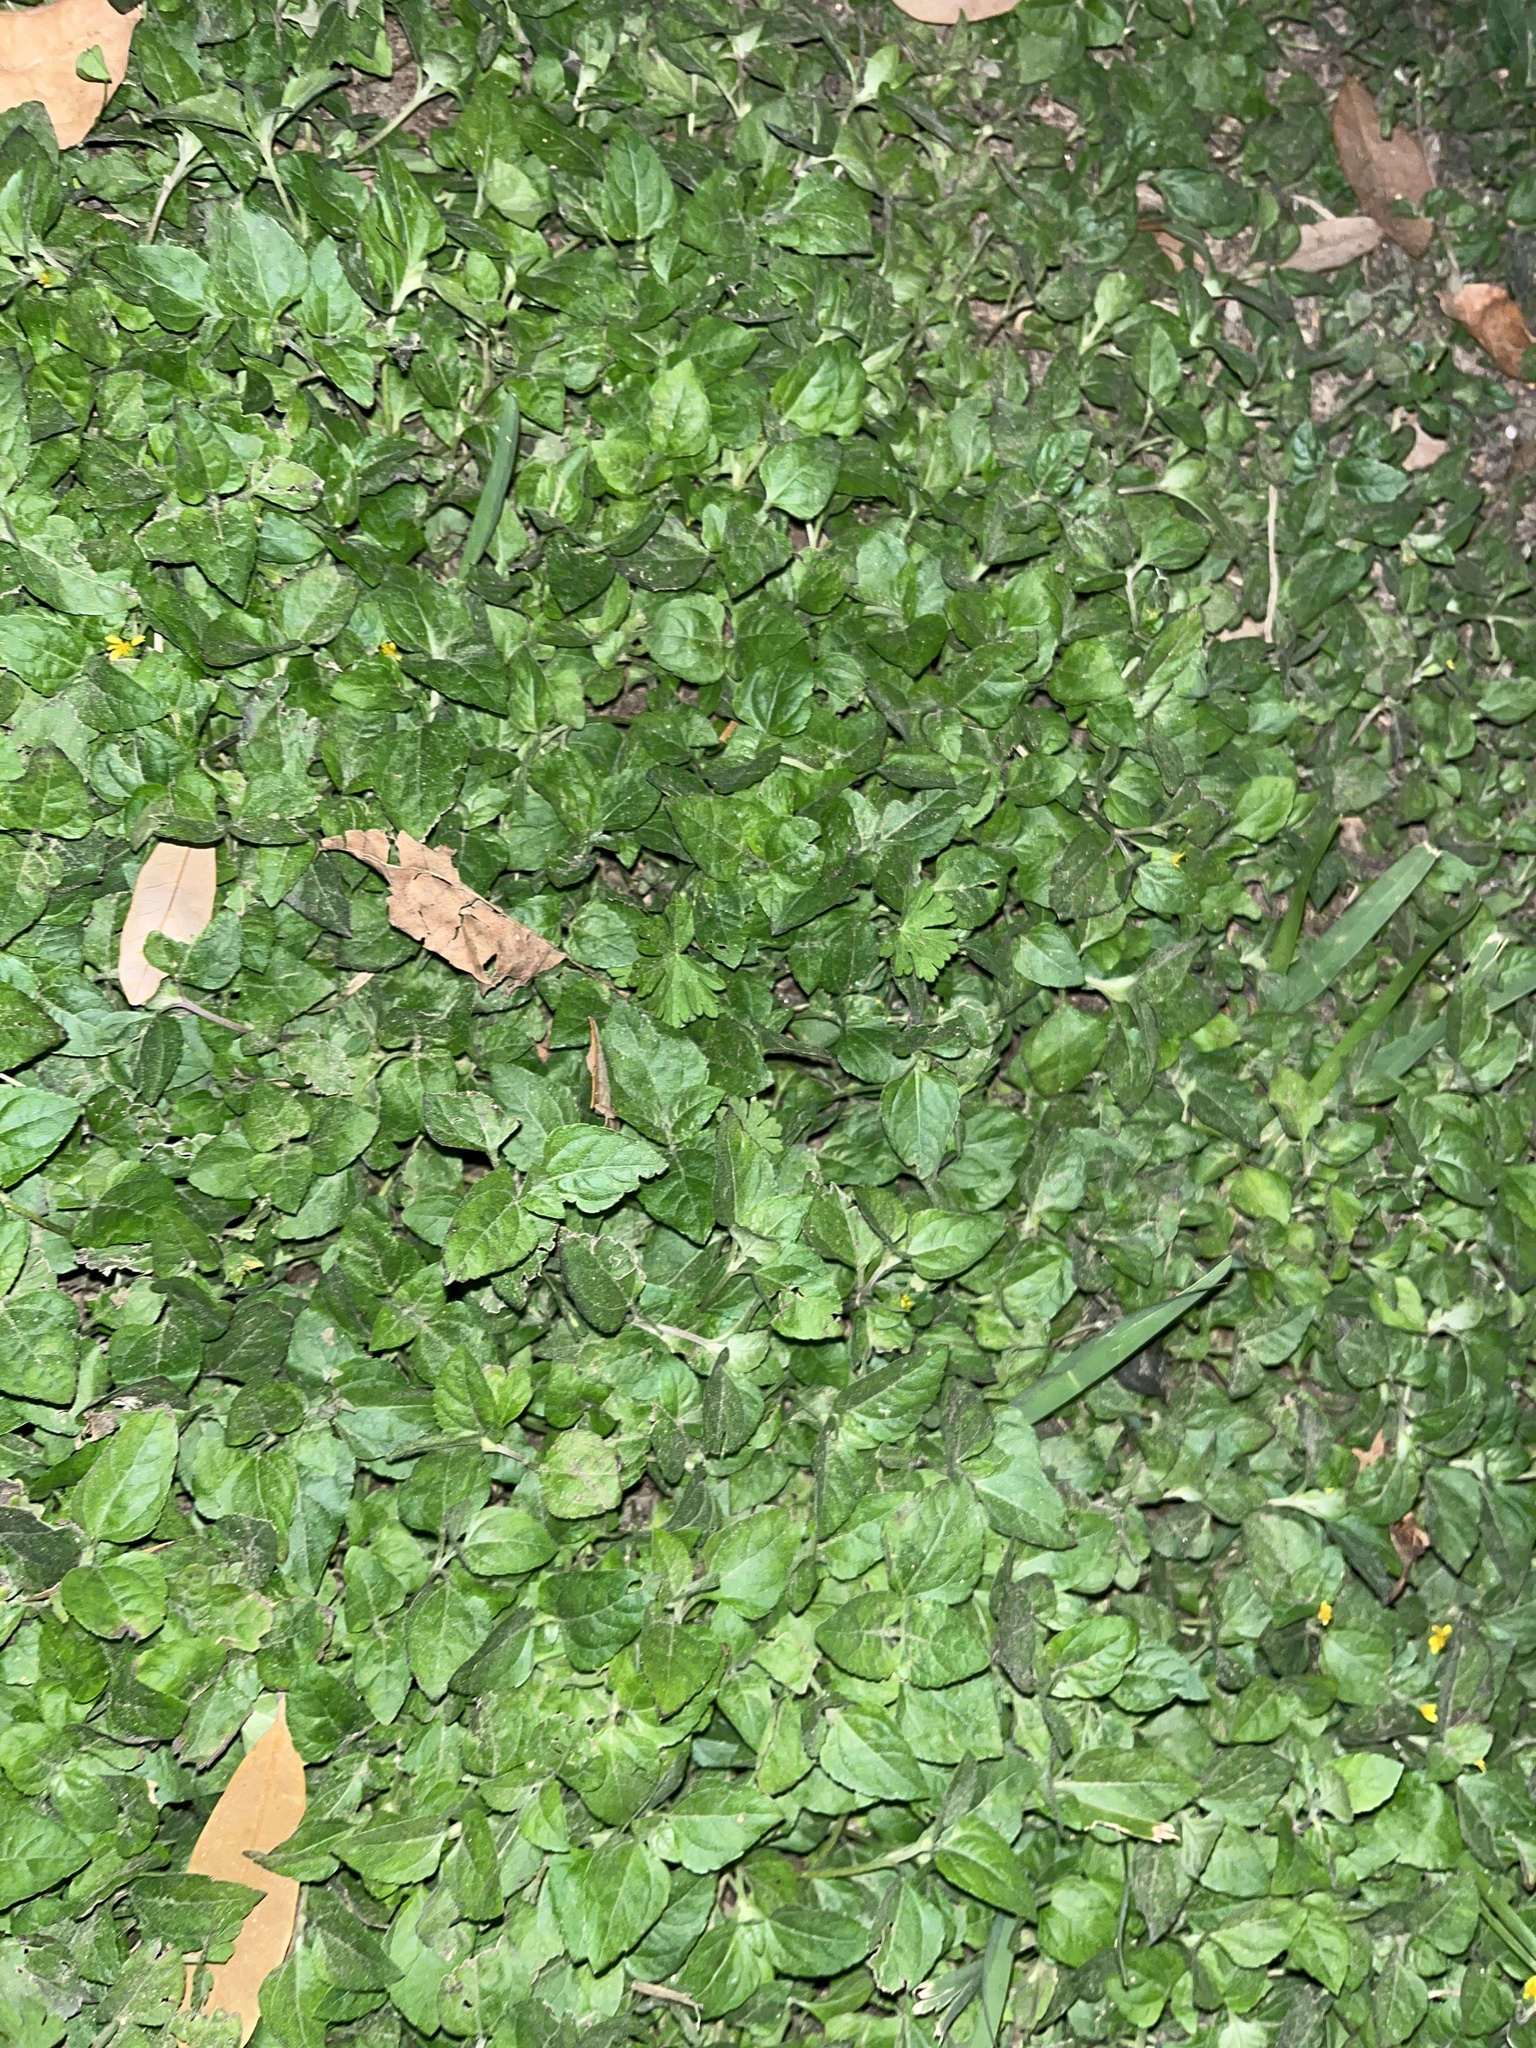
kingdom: Plantae
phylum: Tracheophyta
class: Magnoliopsida
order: Asterales
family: Asteraceae
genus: Calyptocarpus
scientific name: Calyptocarpus vialis
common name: Straggler daisy
